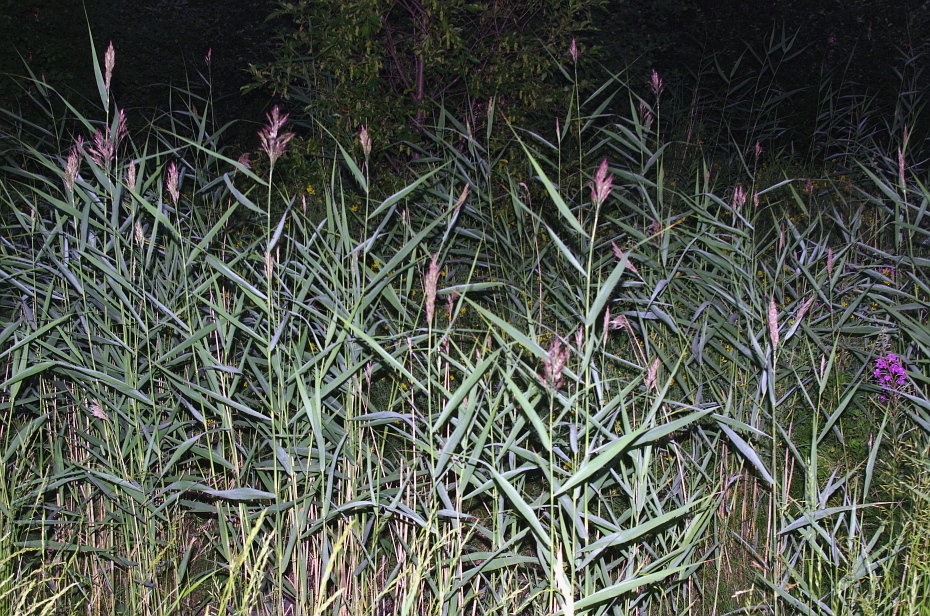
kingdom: Plantae
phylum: Tracheophyta
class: Liliopsida
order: Poales
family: Poaceae
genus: Phragmites
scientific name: Phragmites australis
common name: Common reed
